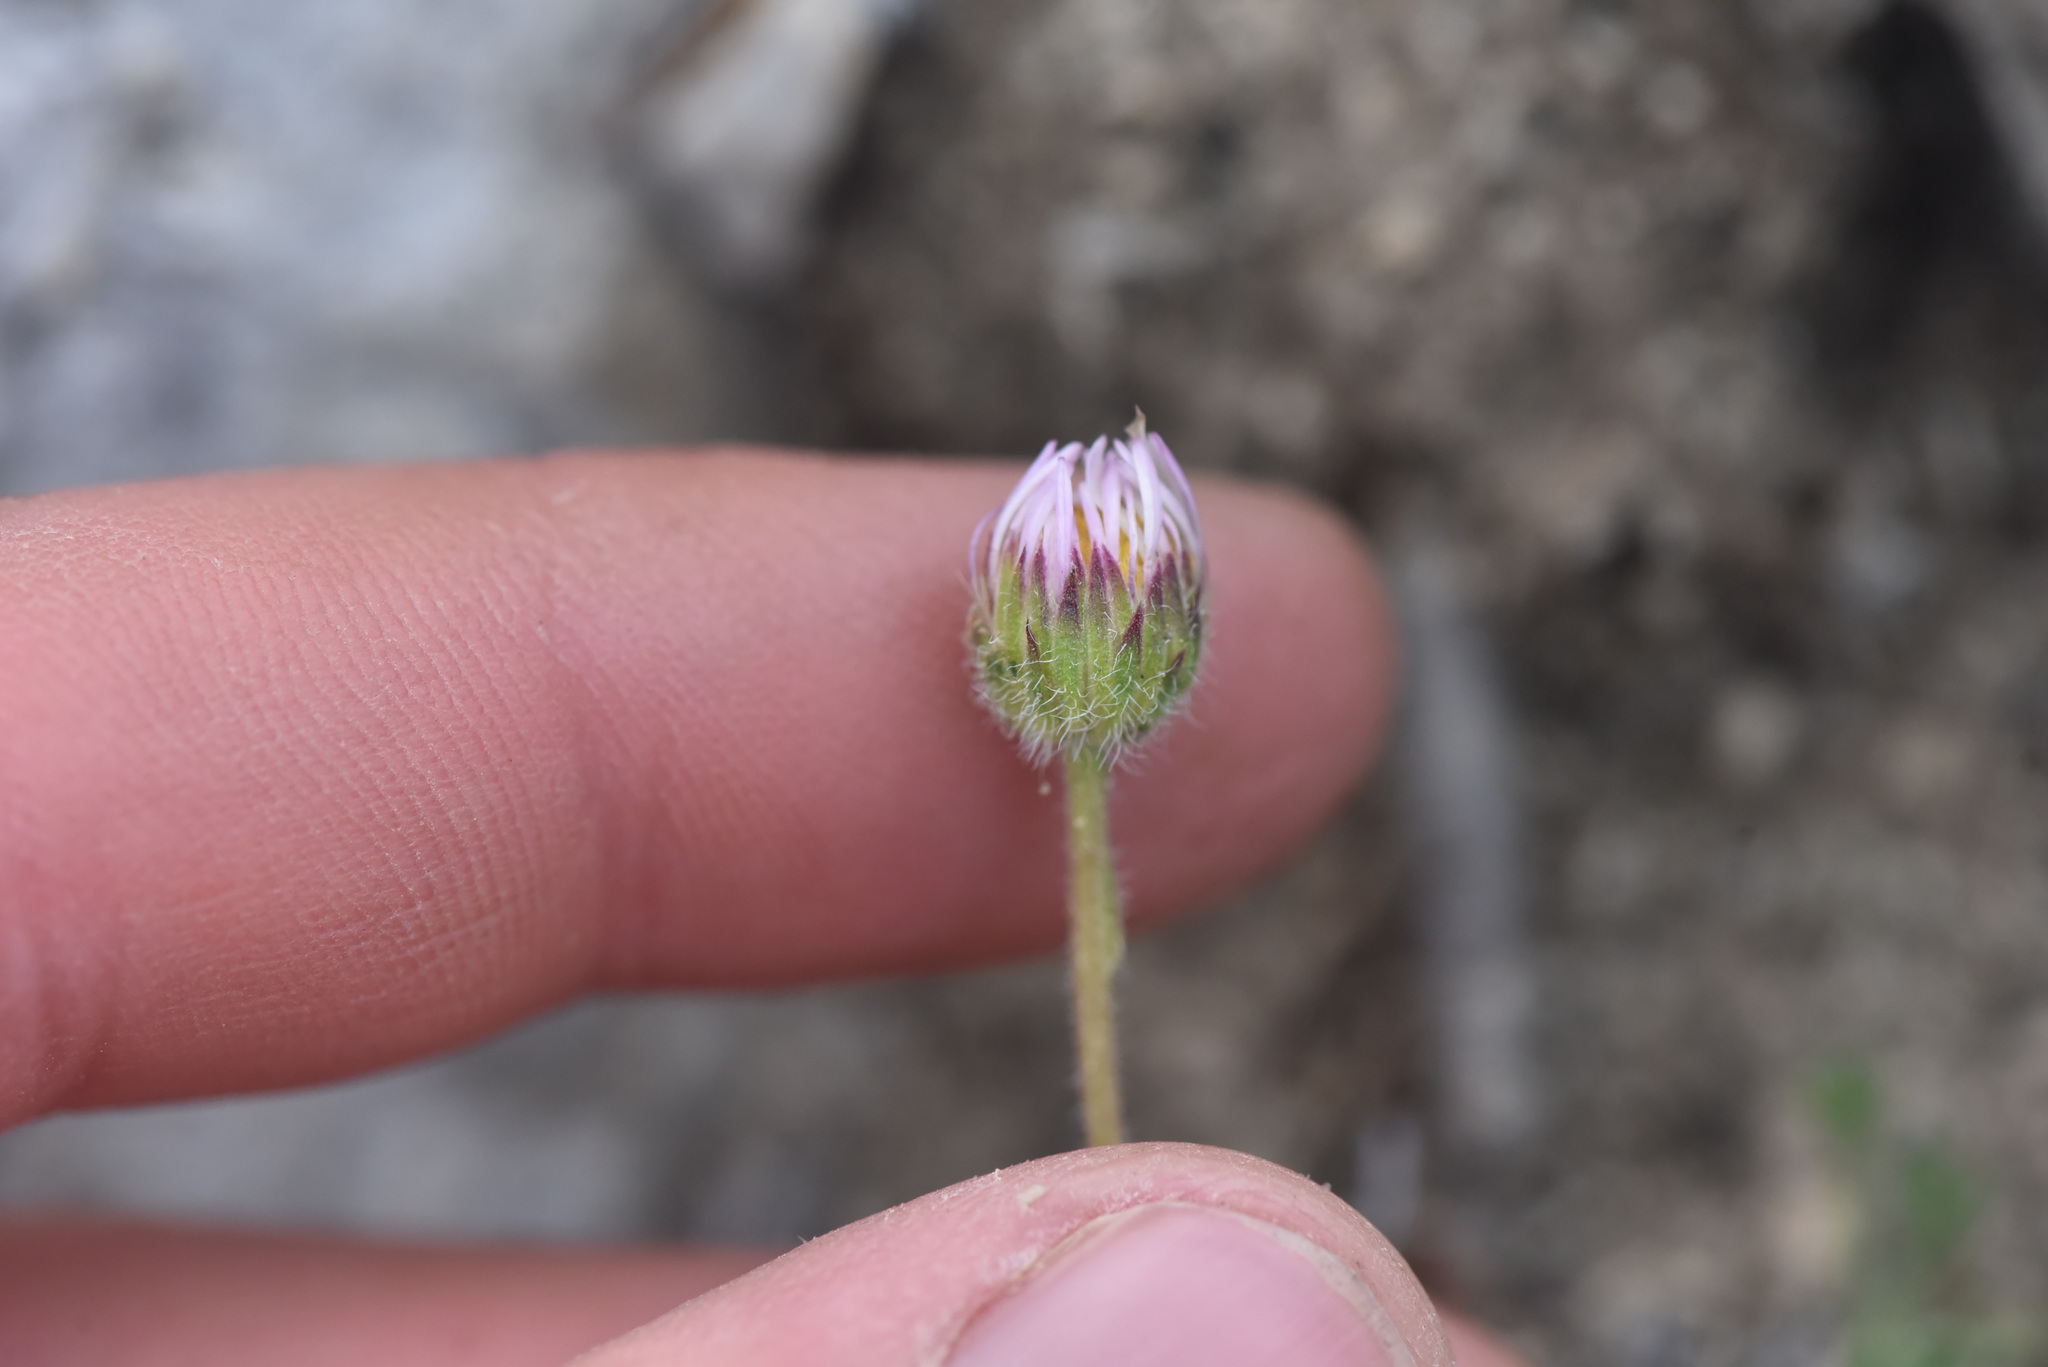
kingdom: Plantae
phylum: Tracheophyta
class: Magnoliopsida
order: Asterales
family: Asteraceae
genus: Erigeron
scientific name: Erigeron compositus
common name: Dwarf mountain fleabane
